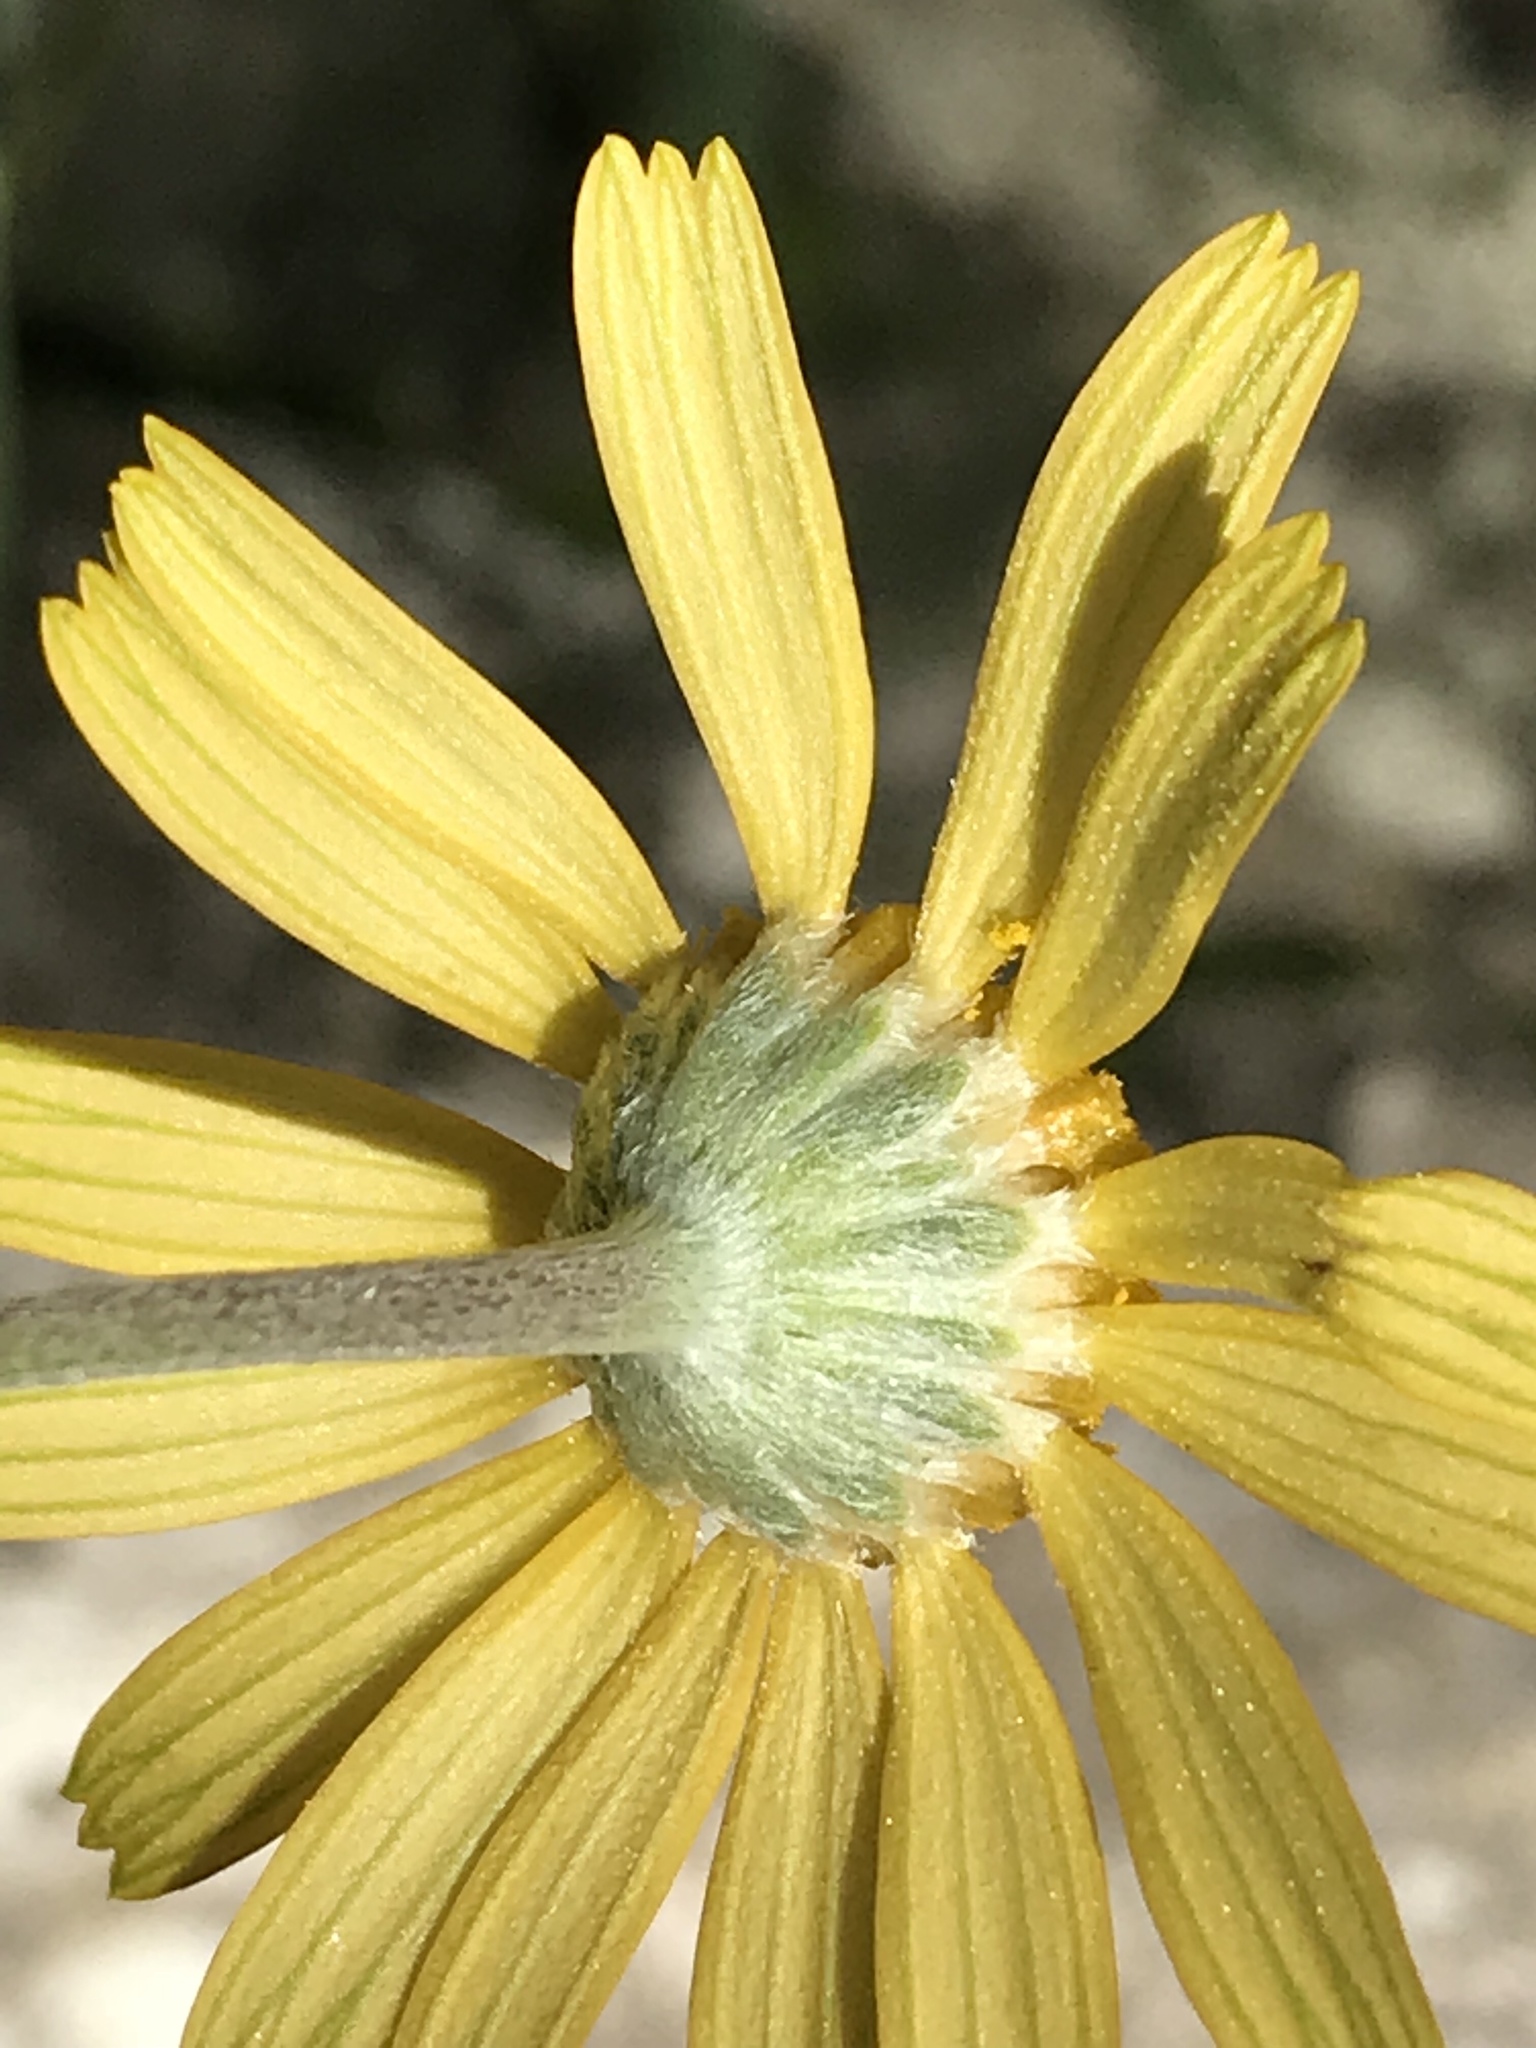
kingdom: Plantae
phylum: Tracheophyta
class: Magnoliopsida
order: Asterales
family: Asteraceae
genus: Tetraneuris
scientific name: Tetraneuris scaposa
